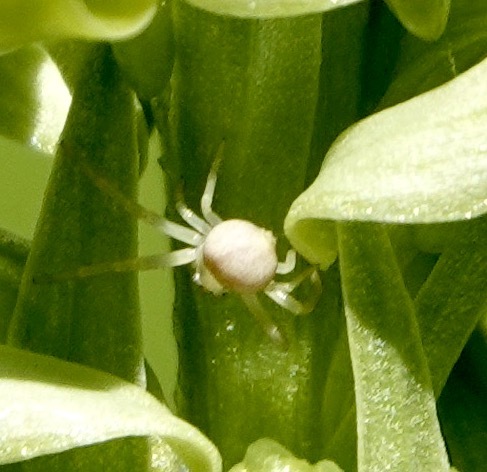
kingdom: Animalia
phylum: Arthropoda
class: Arachnida
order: Araneae
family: Thomisidae
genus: Misumena
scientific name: Misumena vatia
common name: Goldenrod crab spider
